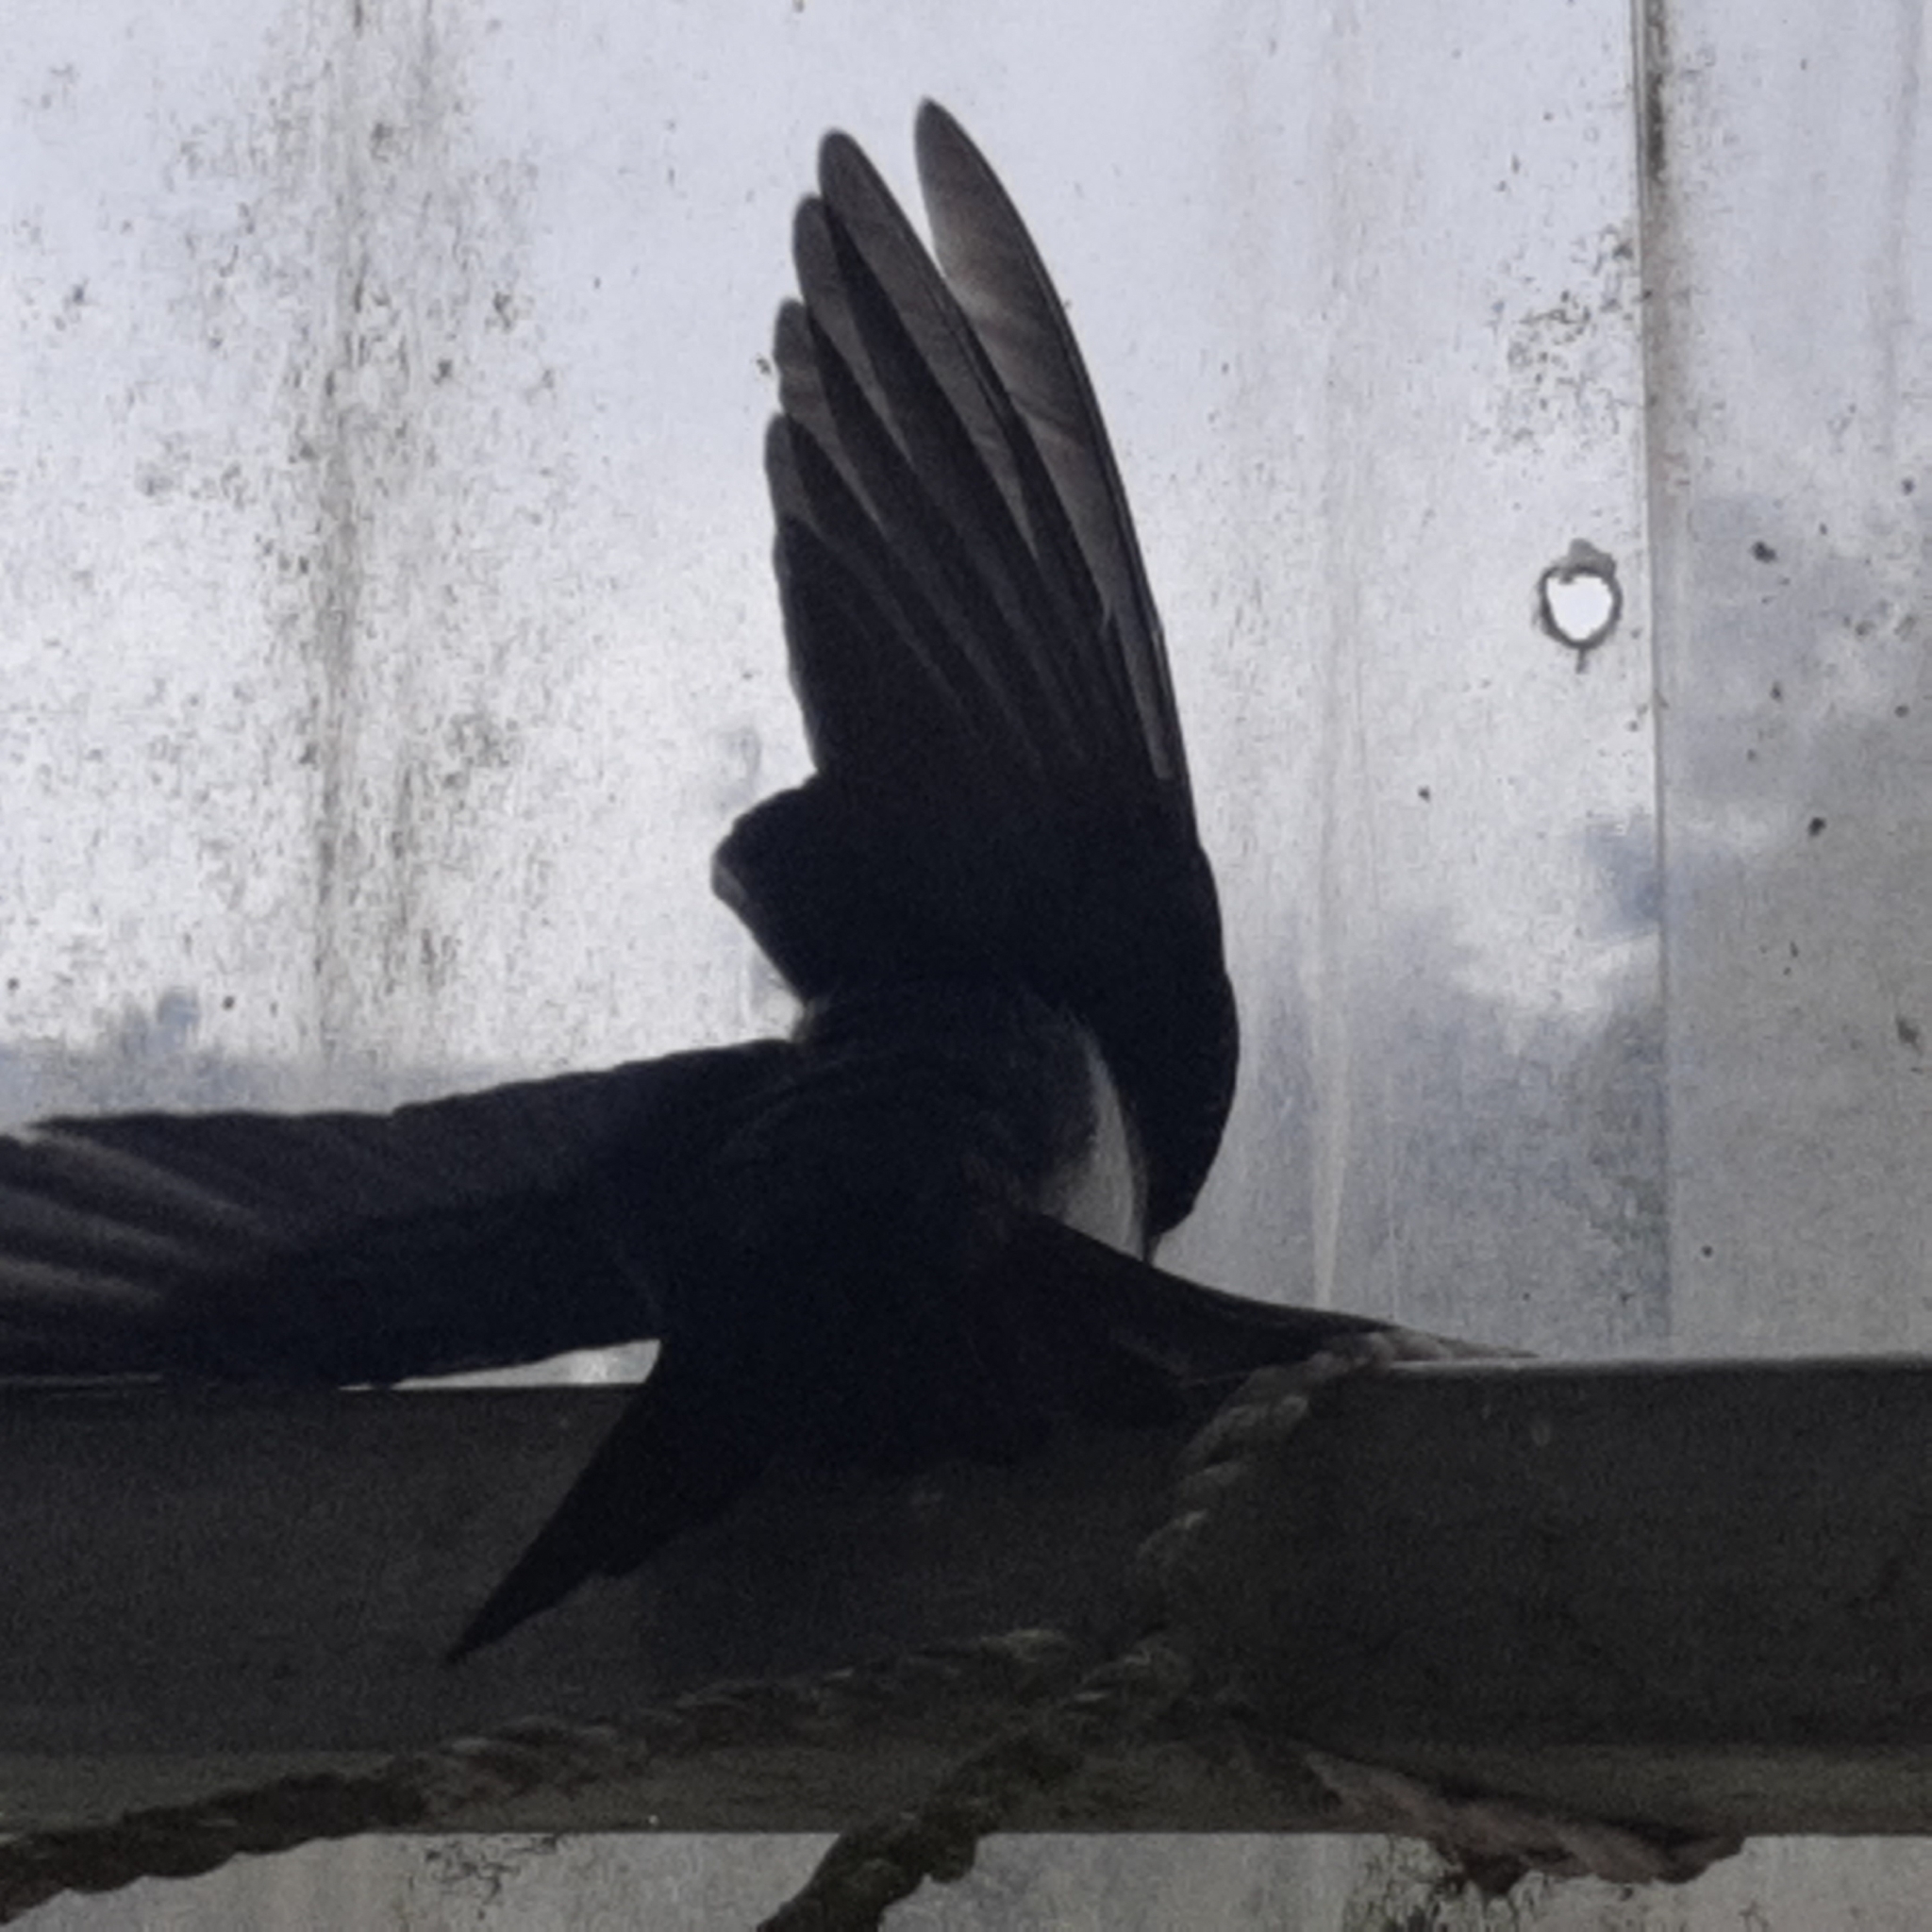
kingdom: Animalia
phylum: Chordata
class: Aves
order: Passeriformes
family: Hirundinidae
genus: Notiochelidon
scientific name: Notiochelidon cyanoleuca
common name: Blue-and-white swallow
